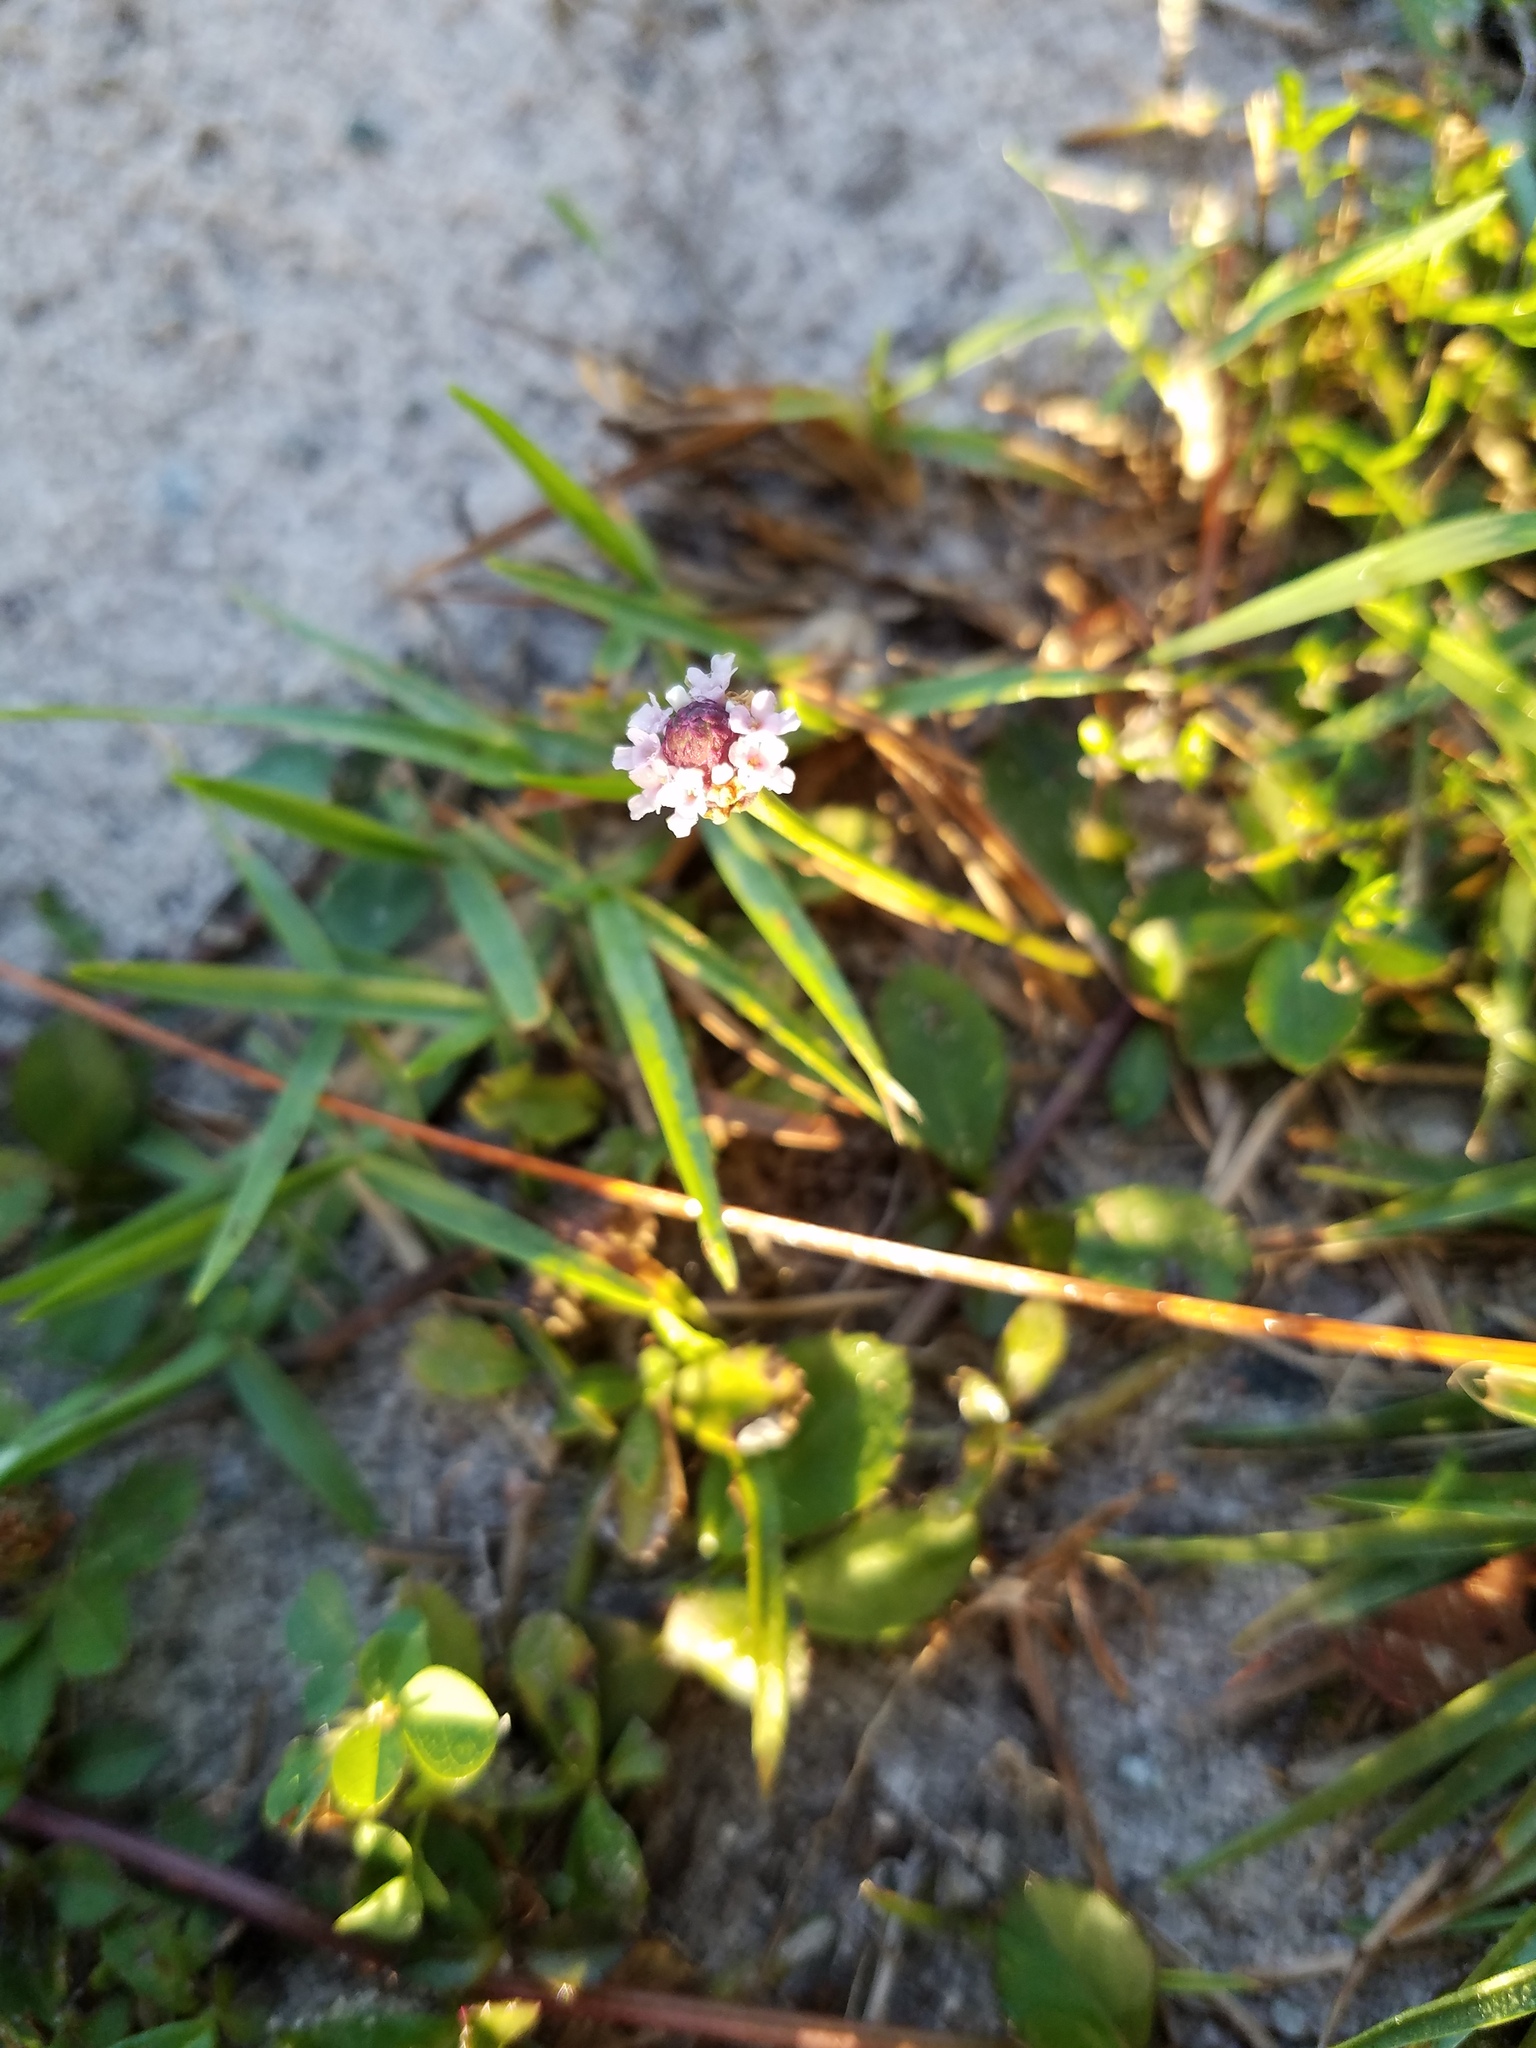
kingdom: Plantae
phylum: Tracheophyta
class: Magnoliopsida
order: Lamiales
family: Verbenaceae
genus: Phyla
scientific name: Phyla nodiflora
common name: Frogfruit
